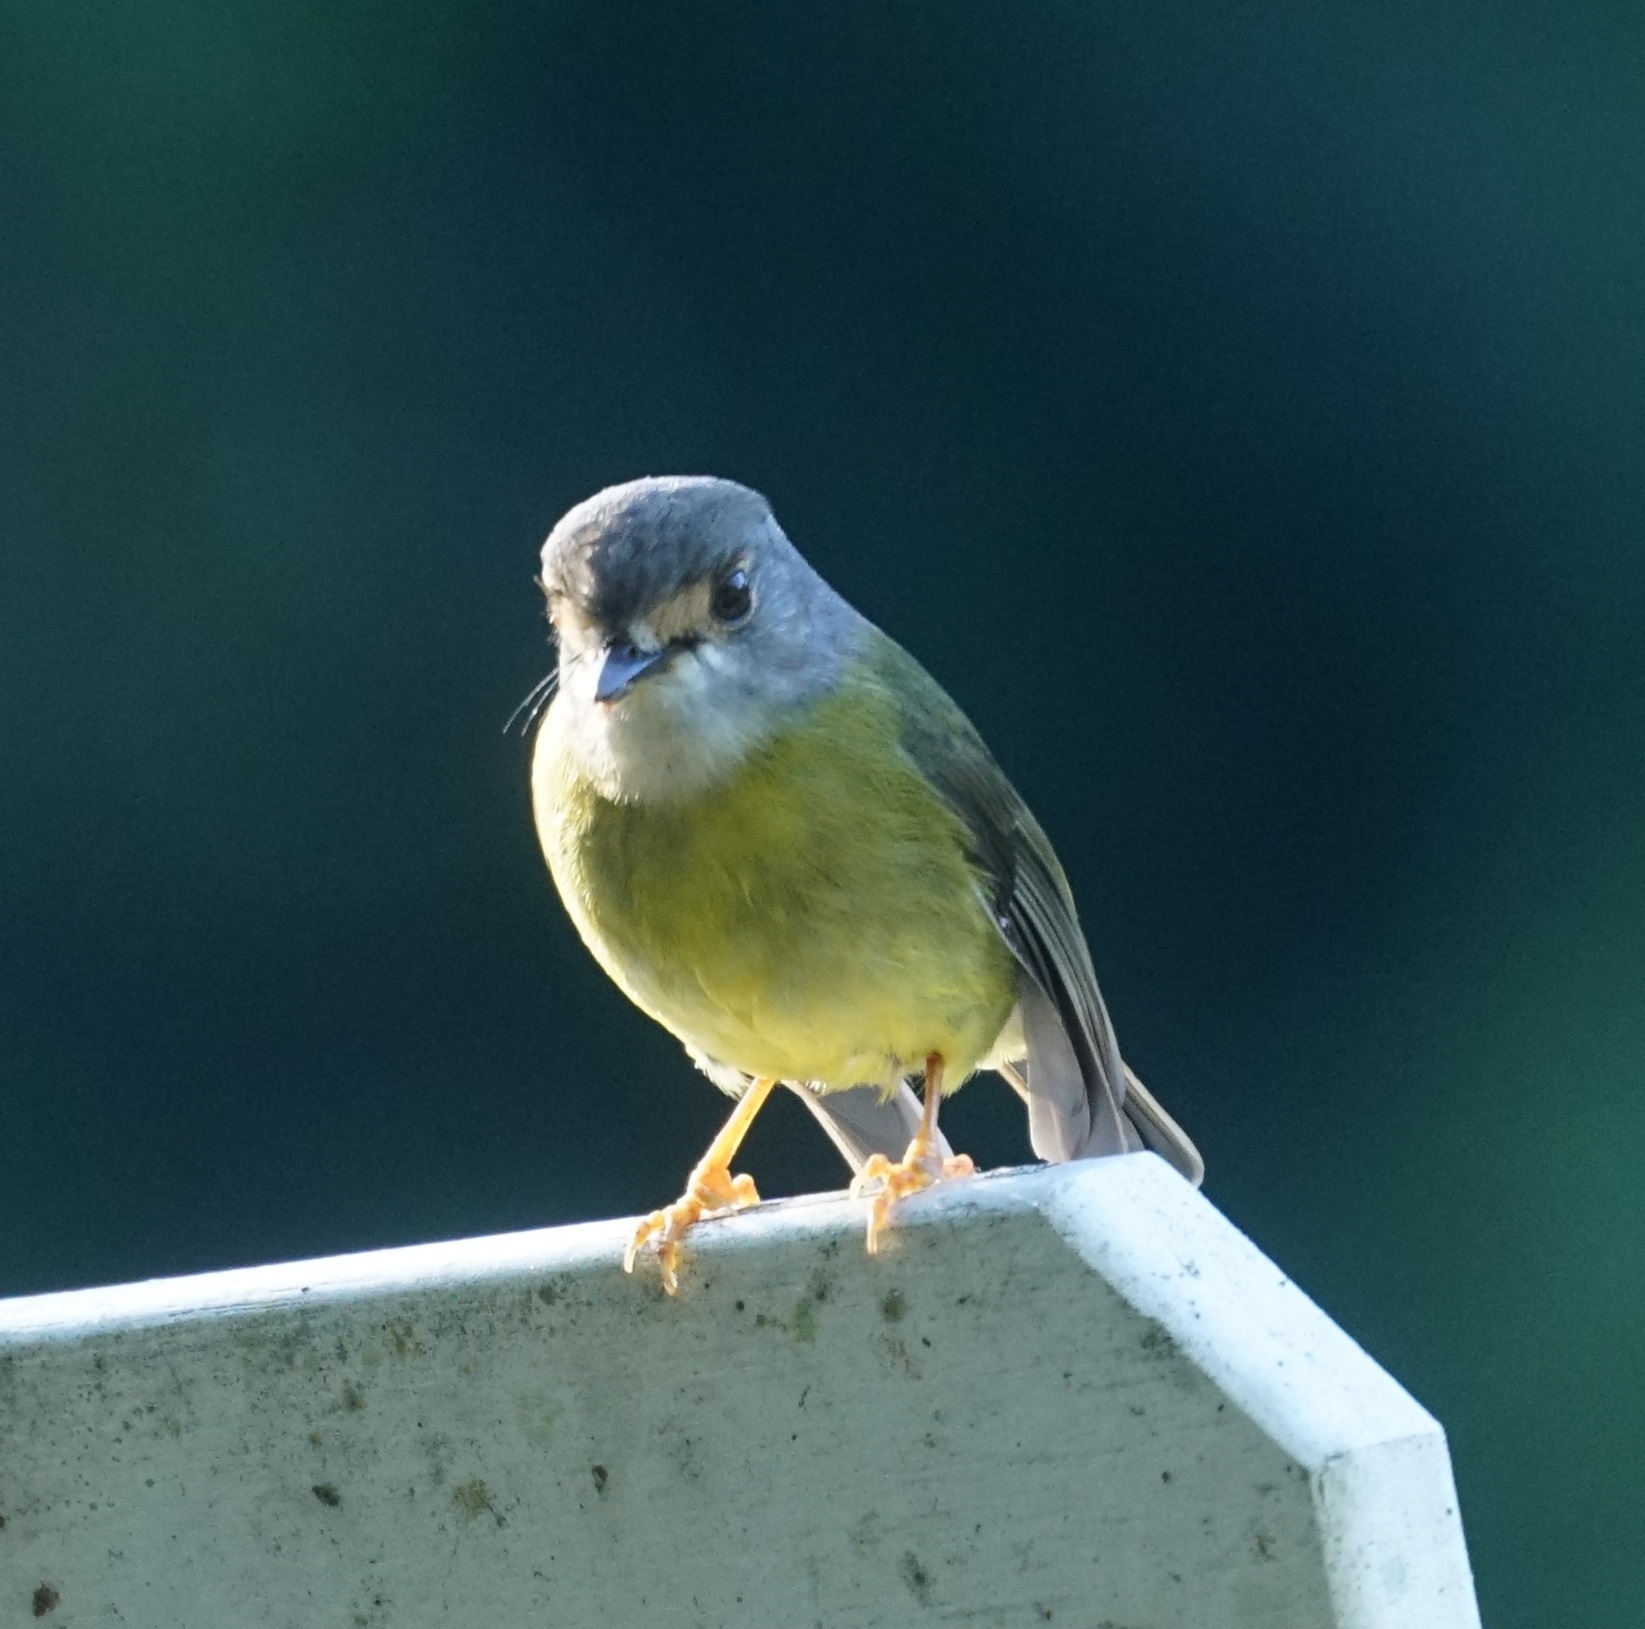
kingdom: Animalia
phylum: Chordata
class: Aves
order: Passeriformes
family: Petroicidae
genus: Eopsaltria
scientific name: Eopsaltria
